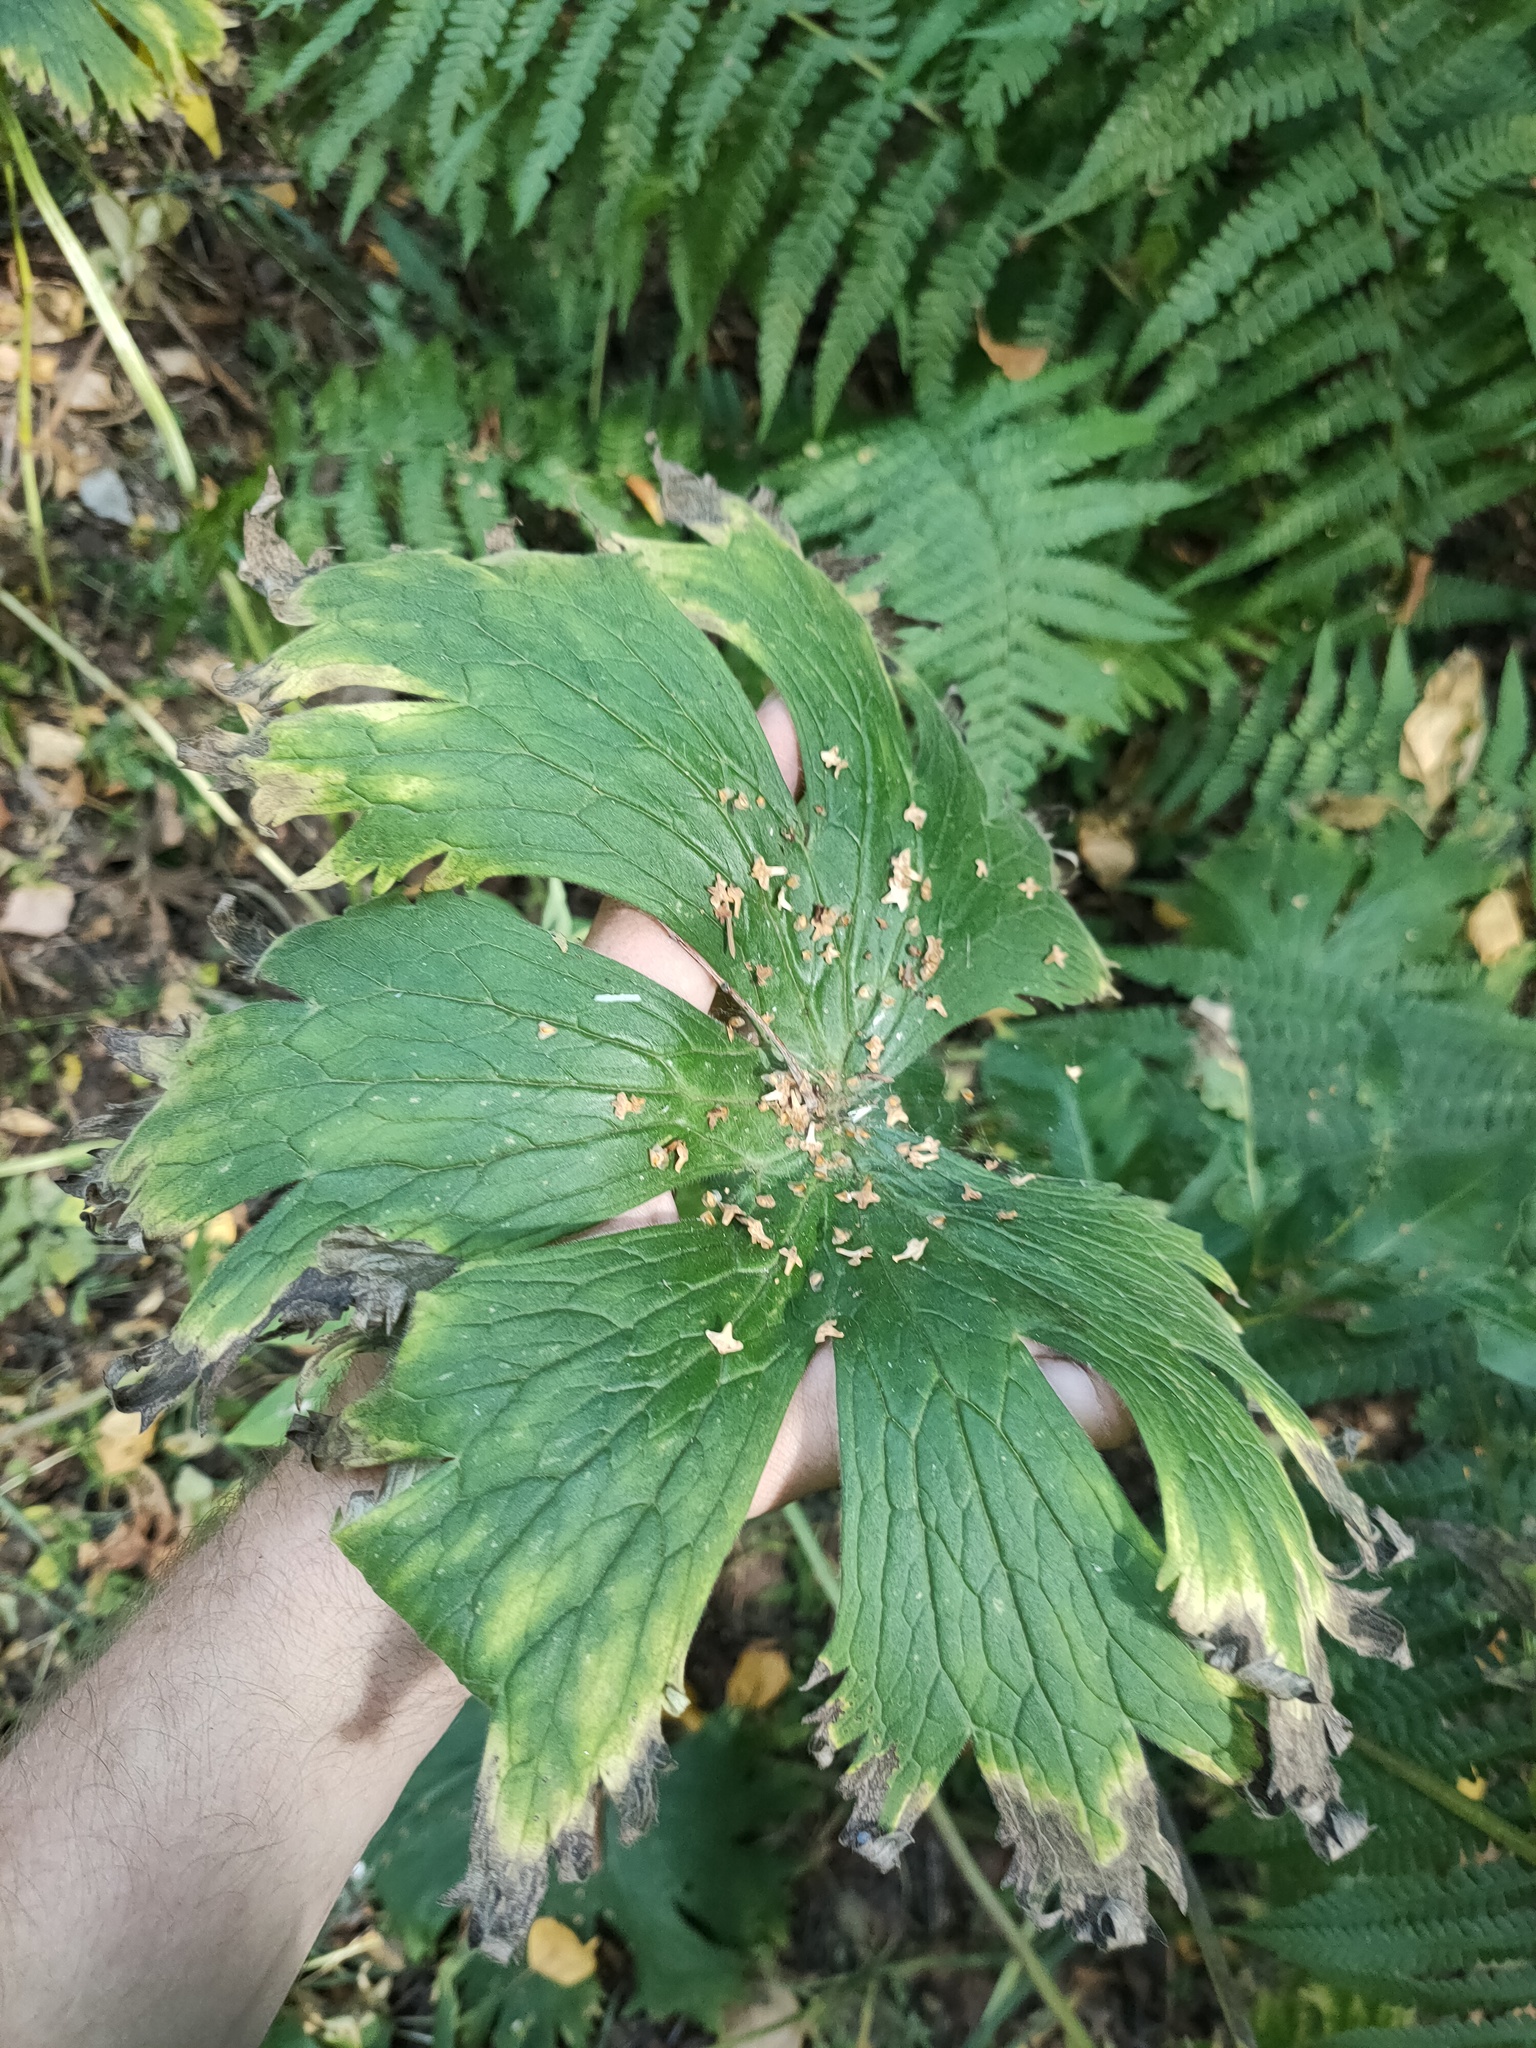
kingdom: Plantae
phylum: Tracheophyta
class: Magnoliopsida
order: Ranunculales
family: Ranunculaceae
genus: Aconitum
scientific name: Aconitum septentrionale
